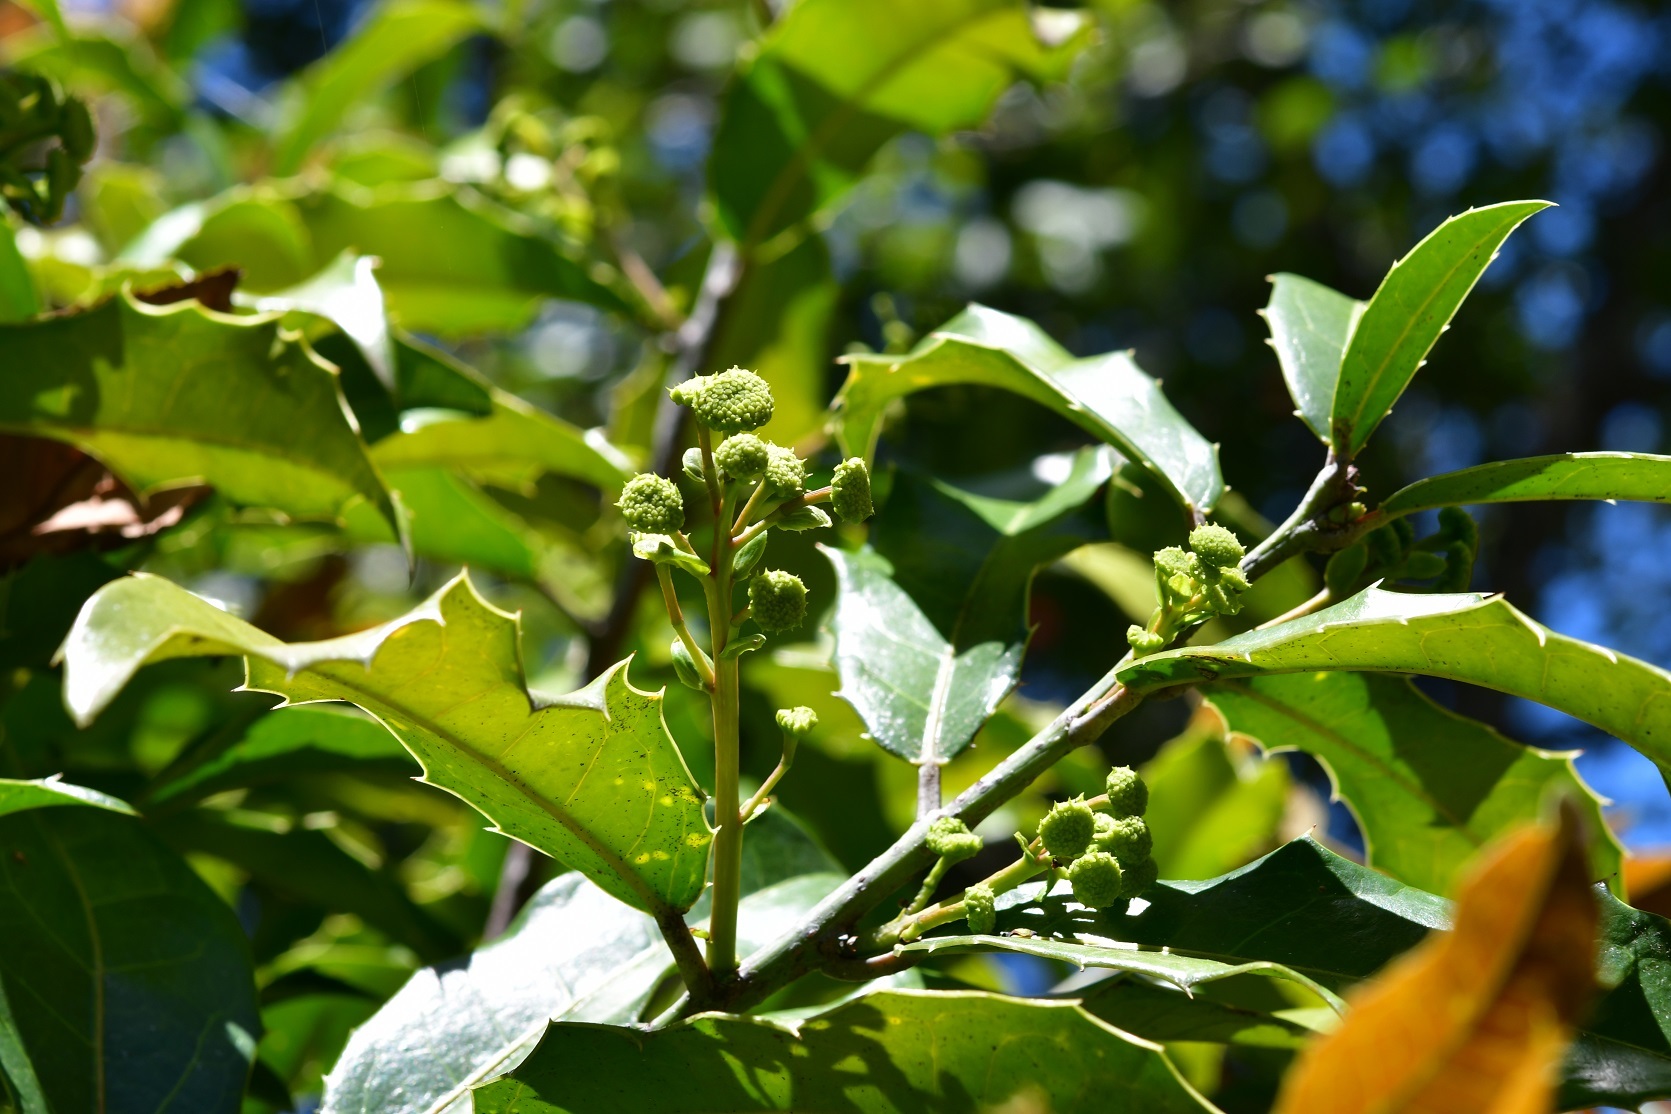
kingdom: Plantae
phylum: Tracheophyta
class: Magnoliopsida
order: Malpighiales
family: Salicaceae
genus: Olmediella
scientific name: Olmediella betschleriana
